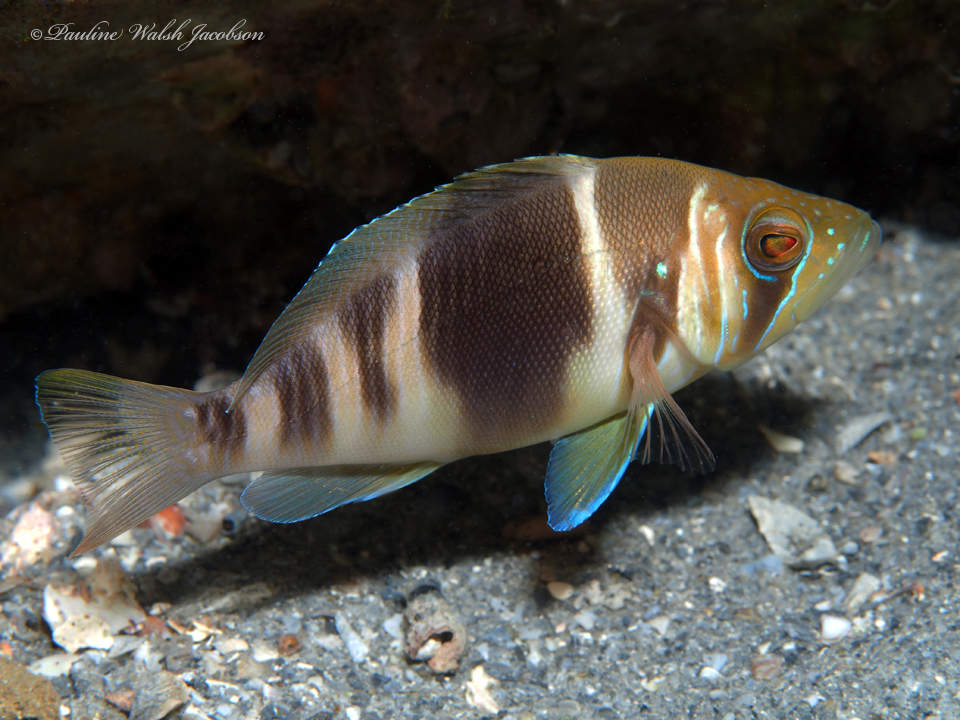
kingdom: Animalia
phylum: Chordata
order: Perciformes
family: Serranidae
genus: Hypoplectrus
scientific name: Hypoplectrus puella
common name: Barred hamlet
